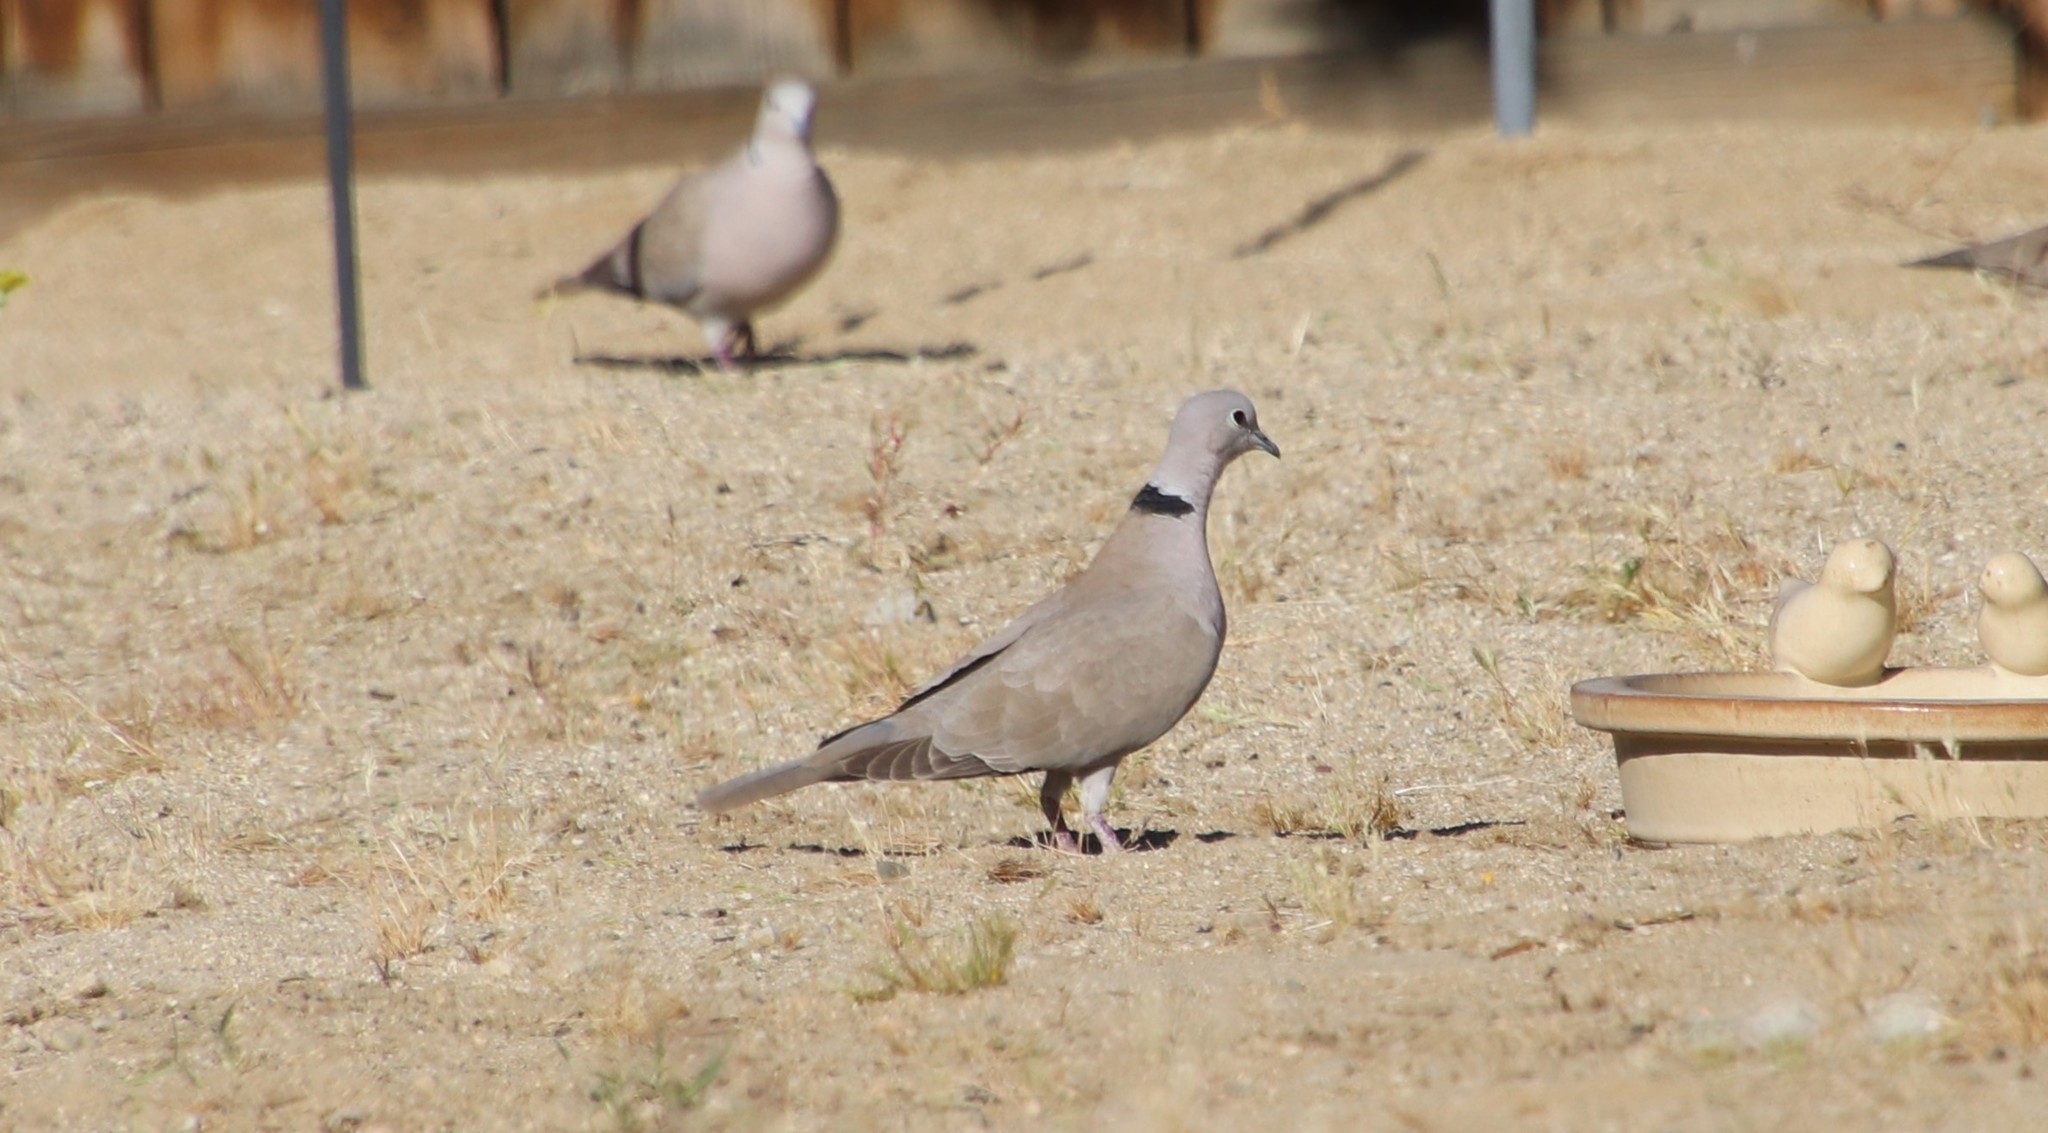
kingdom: Animalia
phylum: Chordata
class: Aves
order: Columbiformes
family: Columbidae
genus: Streptopelia
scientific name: Streptopelia decaocto
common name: Eurasian collared dove
